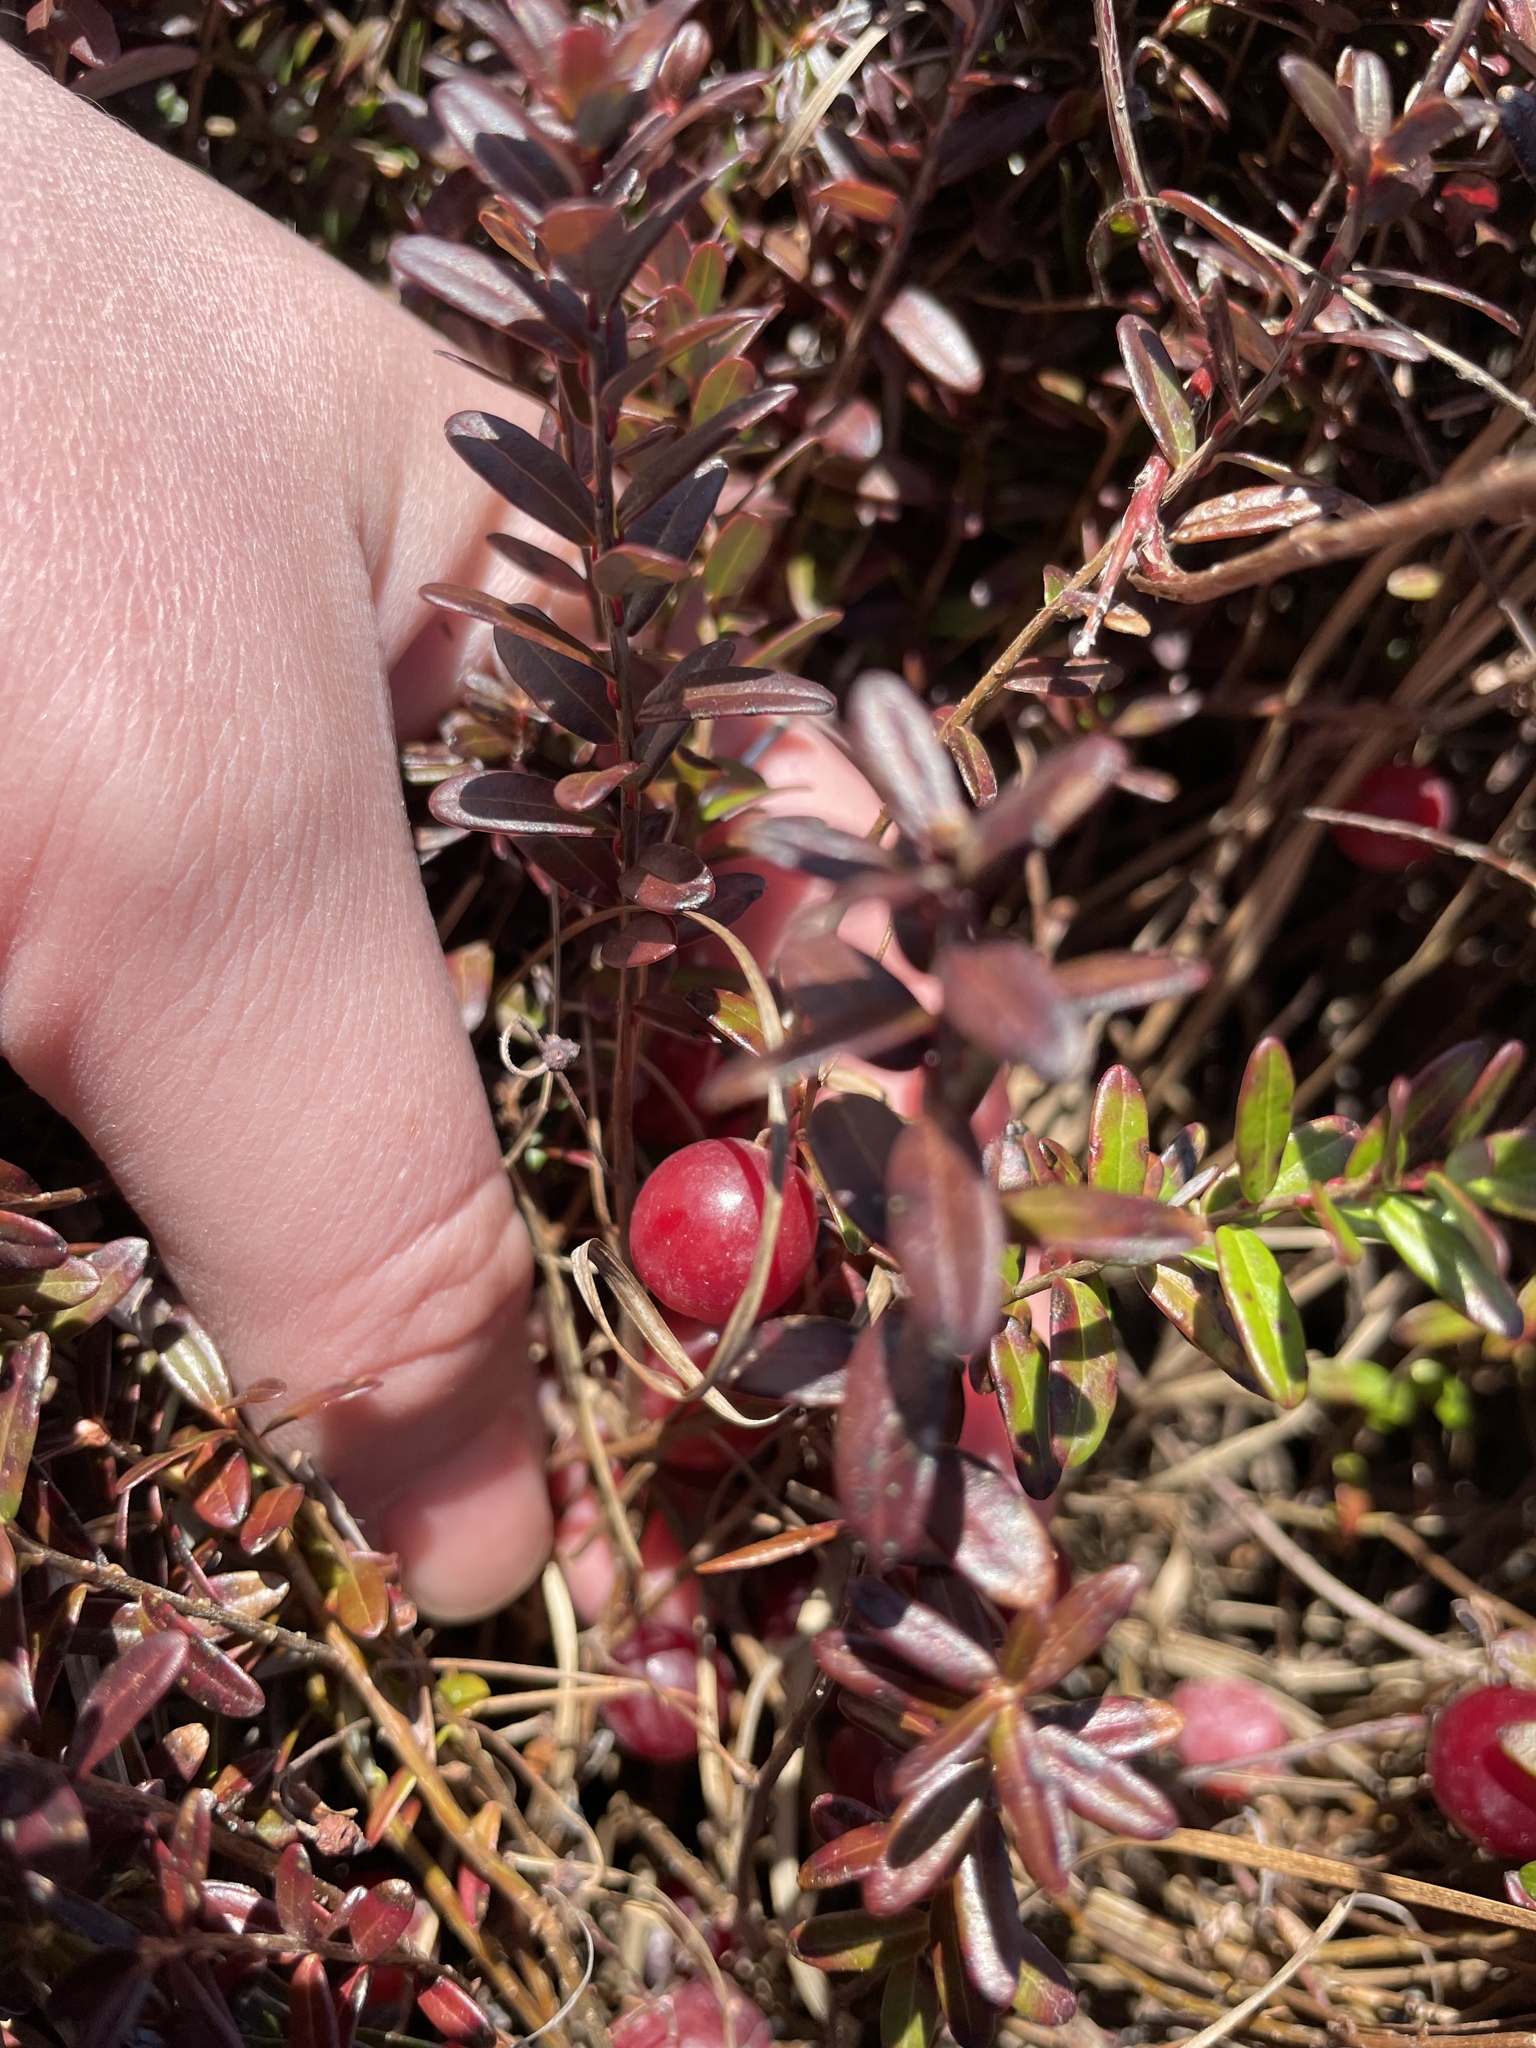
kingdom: Plantae
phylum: Tracheophyta
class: Magnoliopsida
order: Ericales
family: Ericaceae
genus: Vaccinium
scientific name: Vaccinium macrocarpon
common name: American cranberry
